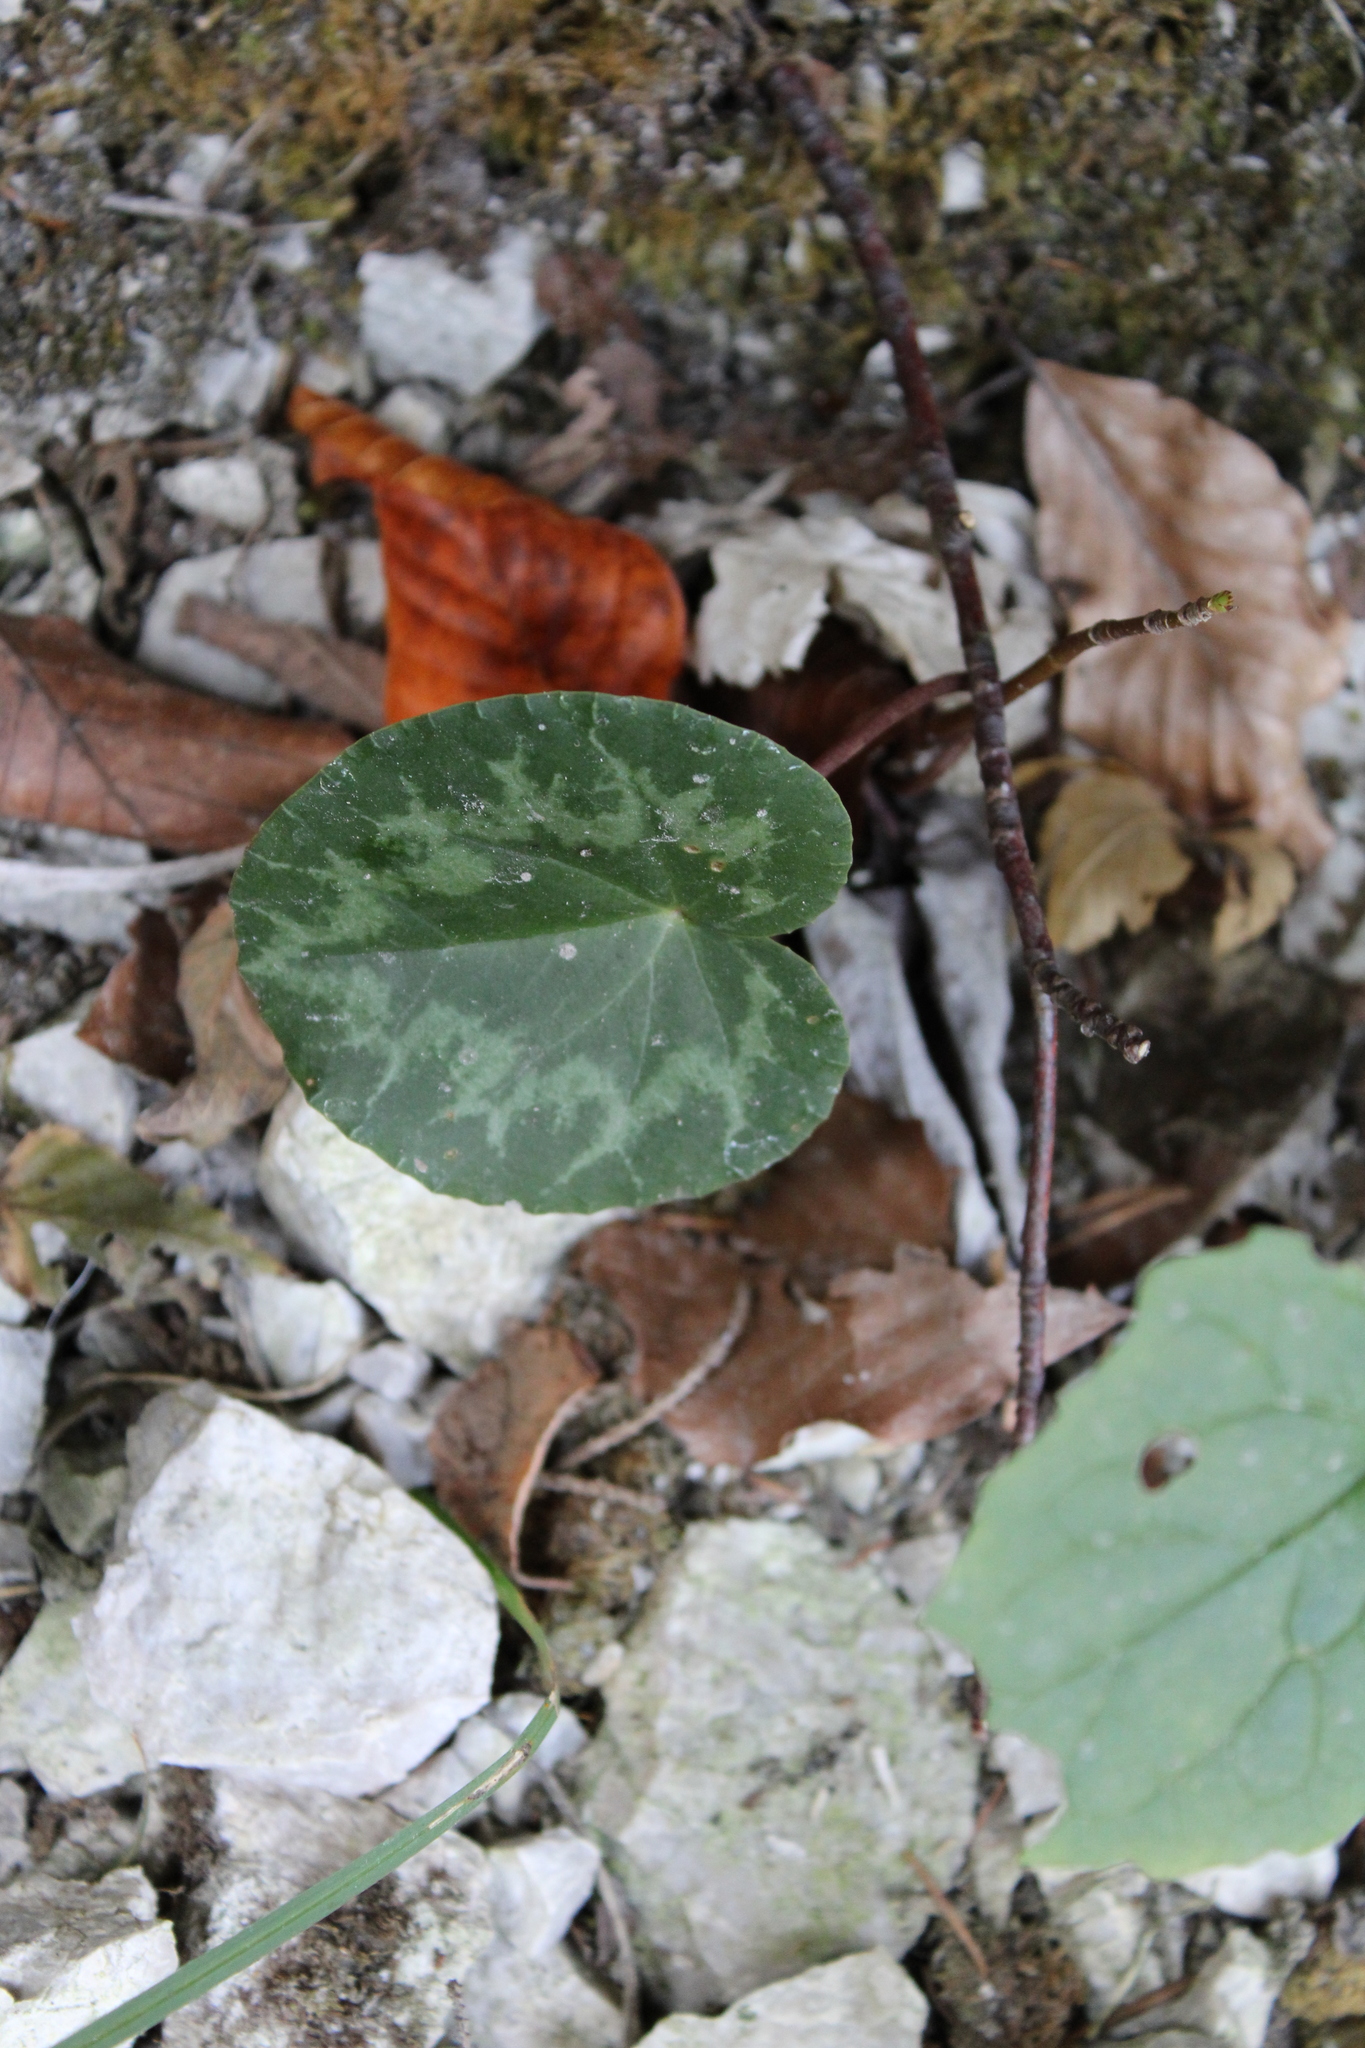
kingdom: Plantae
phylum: Tracheophyta
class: Magnoliopsida
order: Ericales
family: Primulaceae
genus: Cyclamen
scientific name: Cyclamen purpurascens
